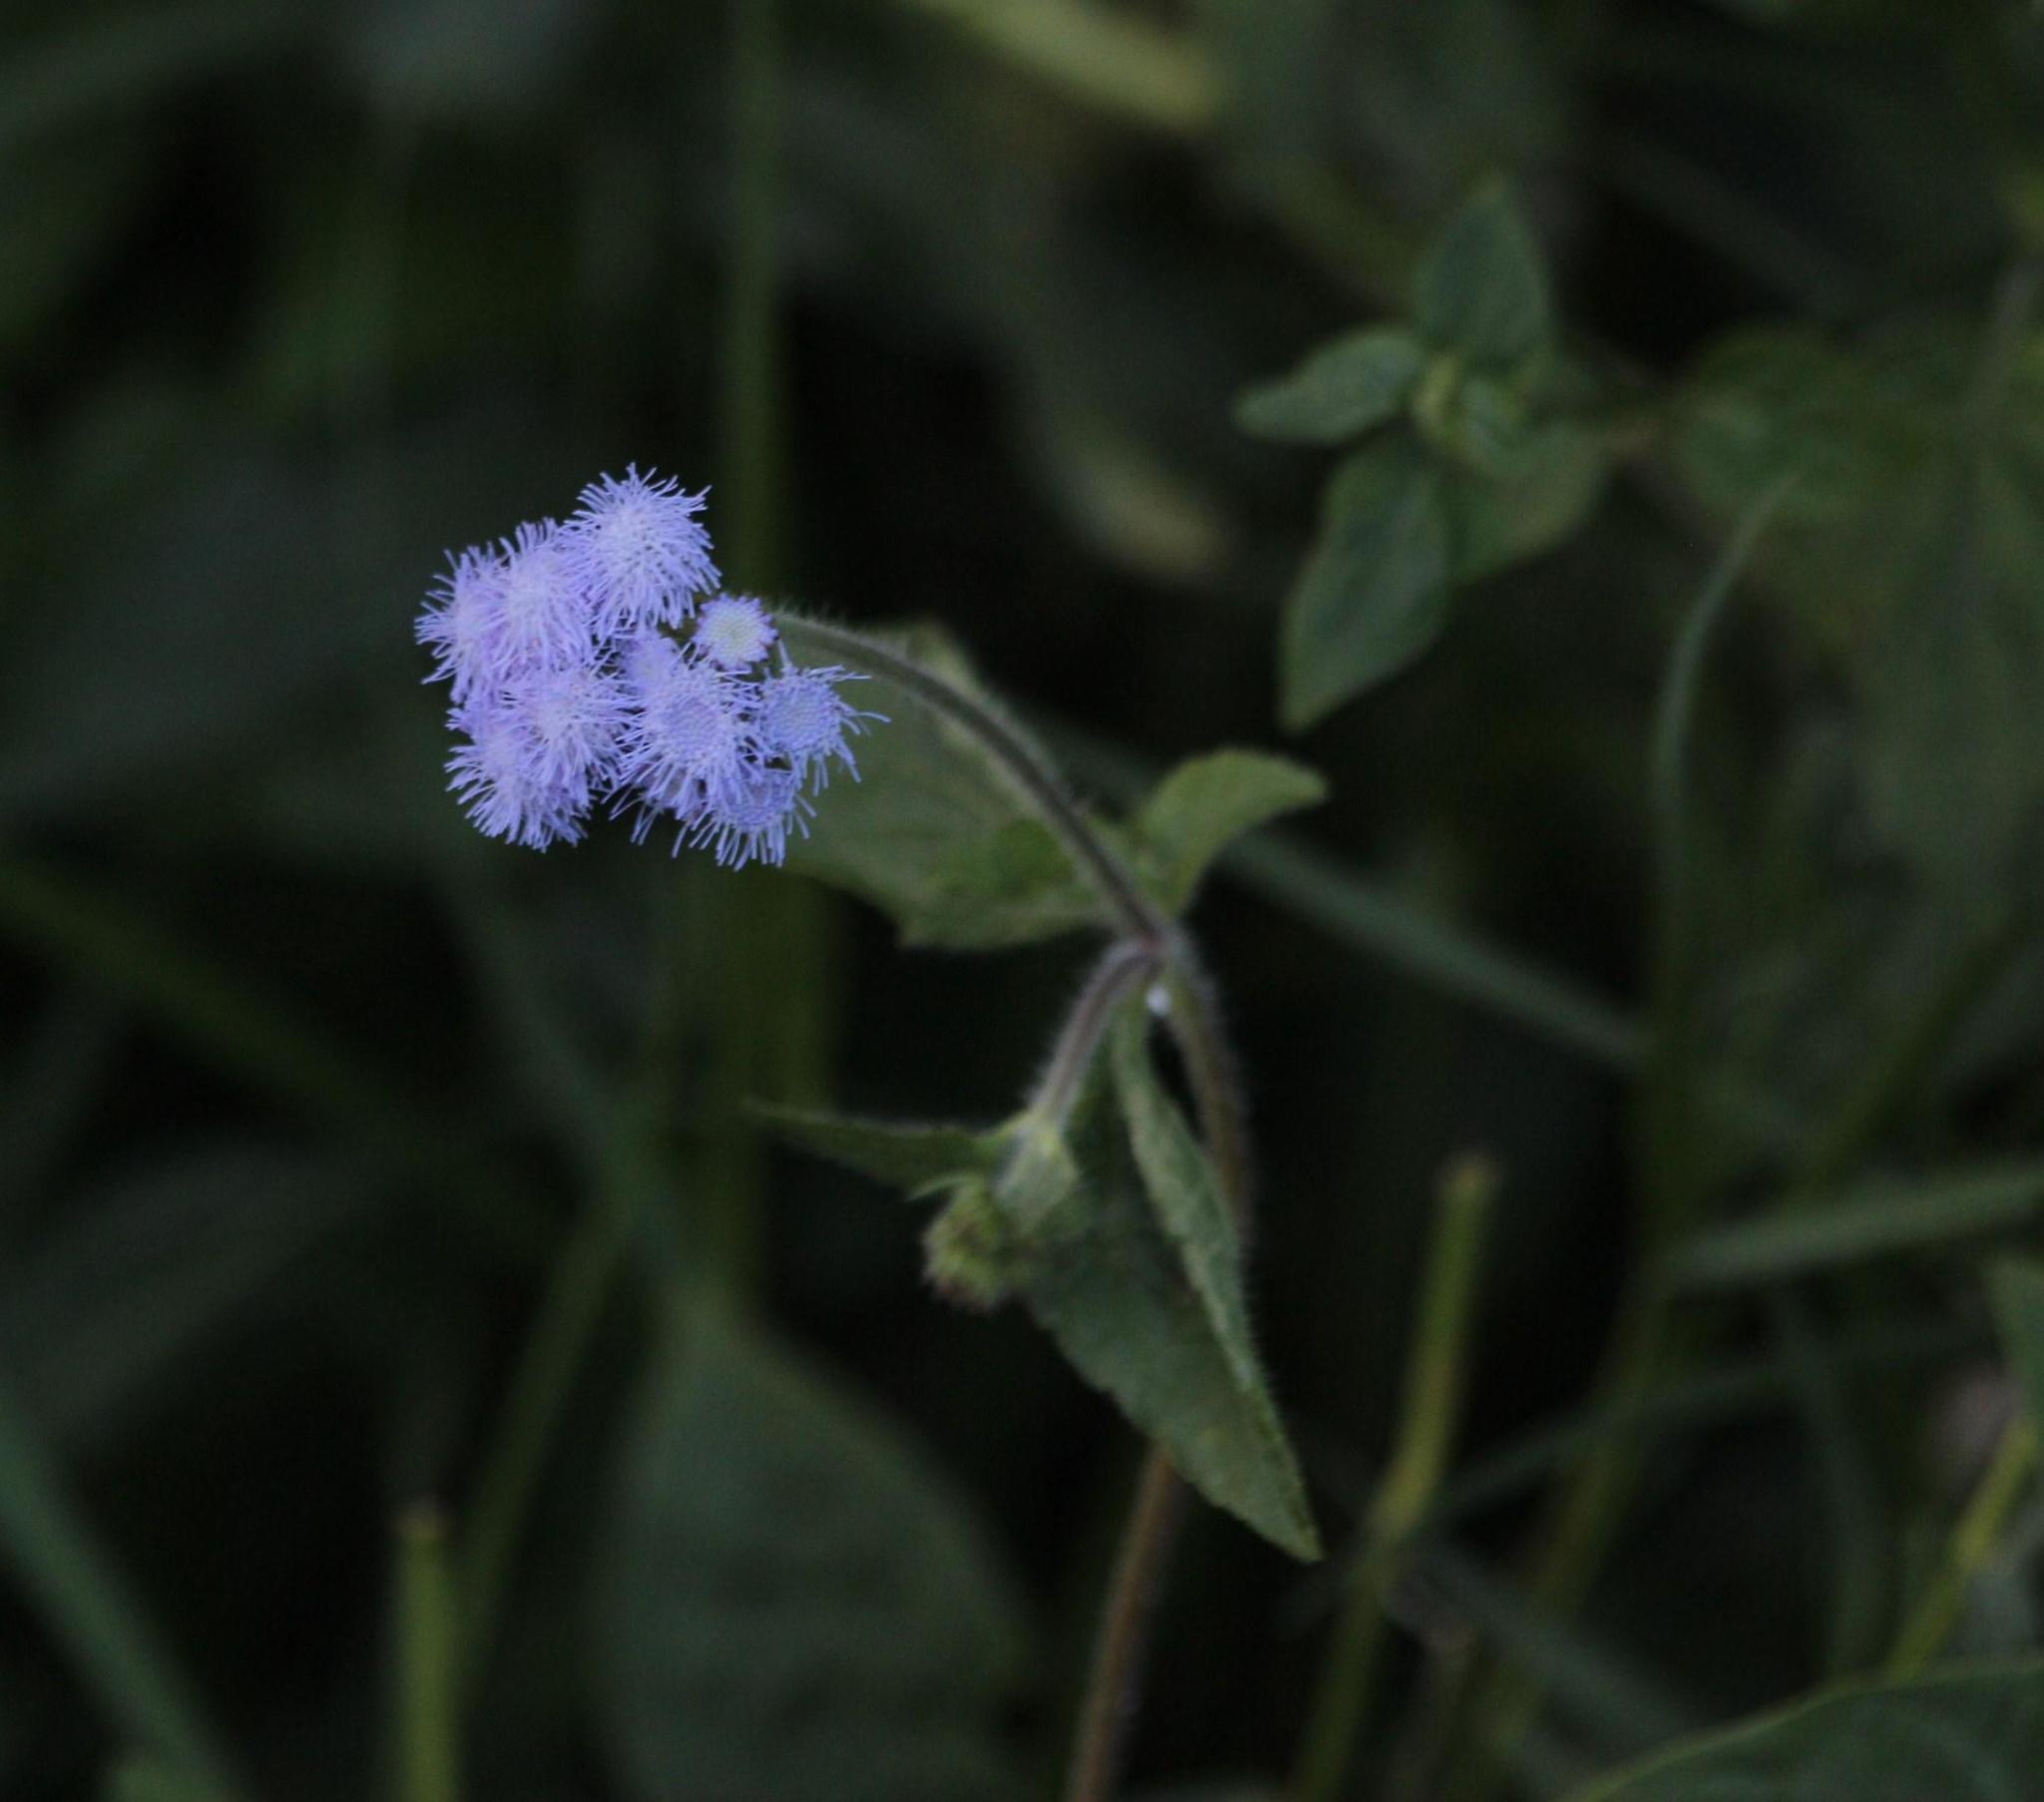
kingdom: Plantae
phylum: Tracheophyta
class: Magnoliopsida
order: Asterales
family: Asteraceae
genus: Ageratum
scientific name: Ageratum conyzoides
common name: Tropical whiteweed
